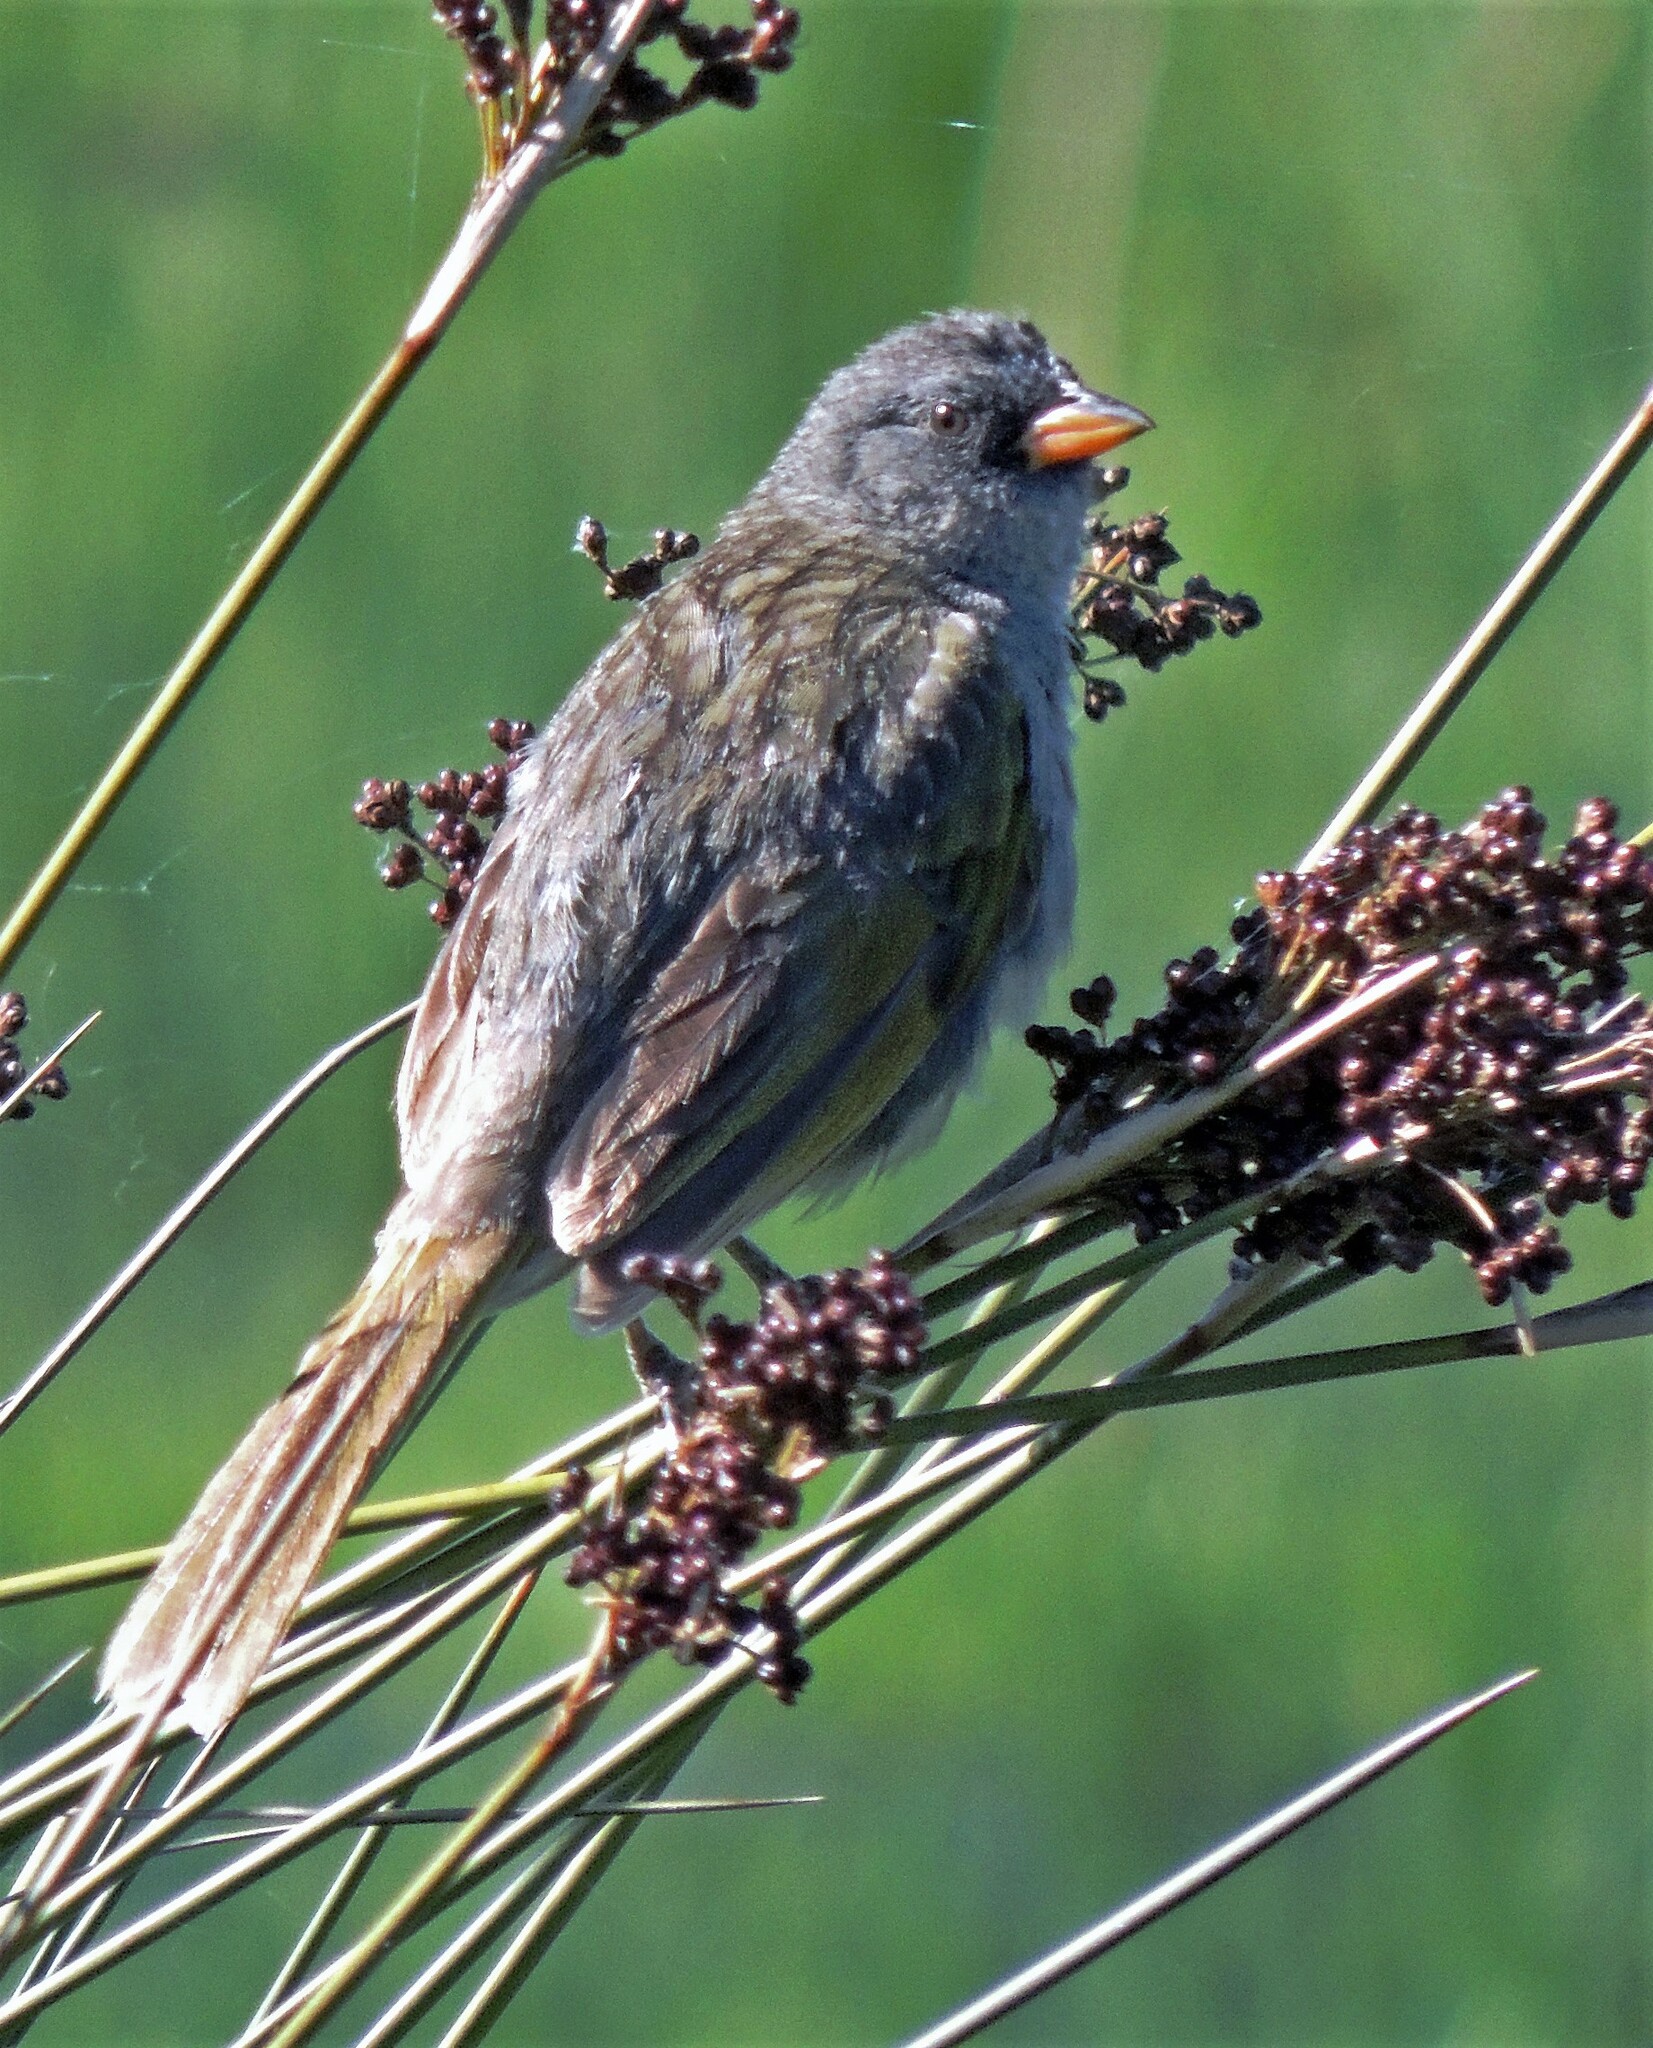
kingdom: Animalia
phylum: Chordata
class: Aves
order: Passeriformes
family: Thraupidae
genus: Embernagra
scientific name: Embernagra platensis
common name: Pampa finch
